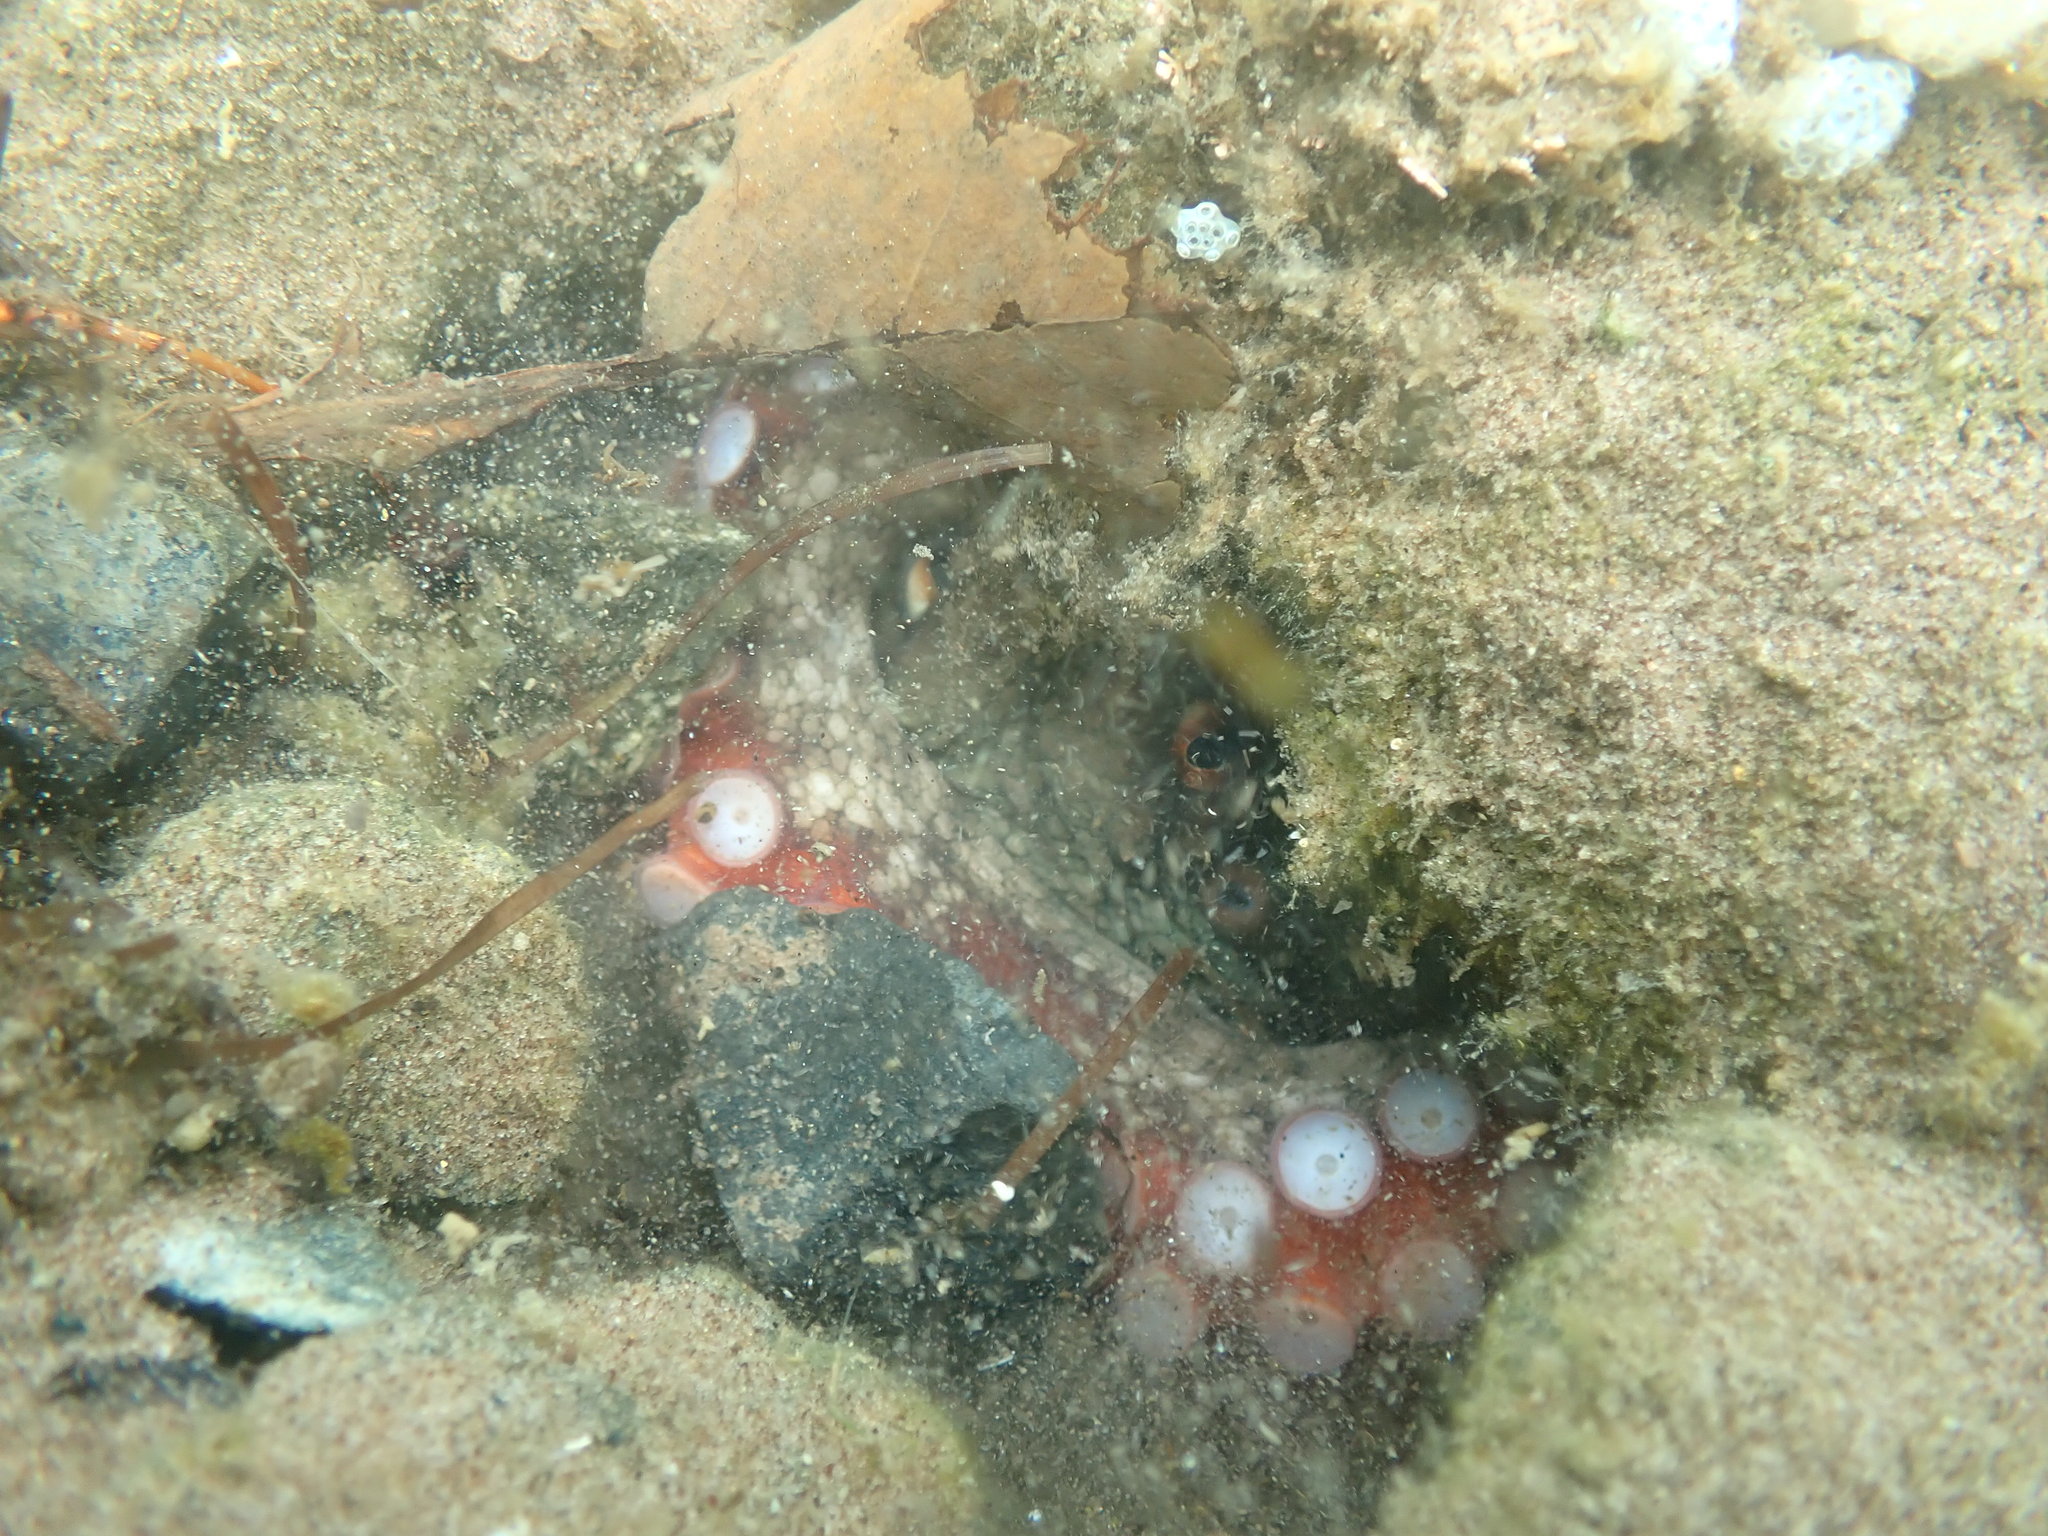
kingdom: Animalia
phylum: Mollusca
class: Cephalopoda
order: Octopoda
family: Octopodidae
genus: Octopus
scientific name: Octopus tetricus
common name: Sydney octopus
